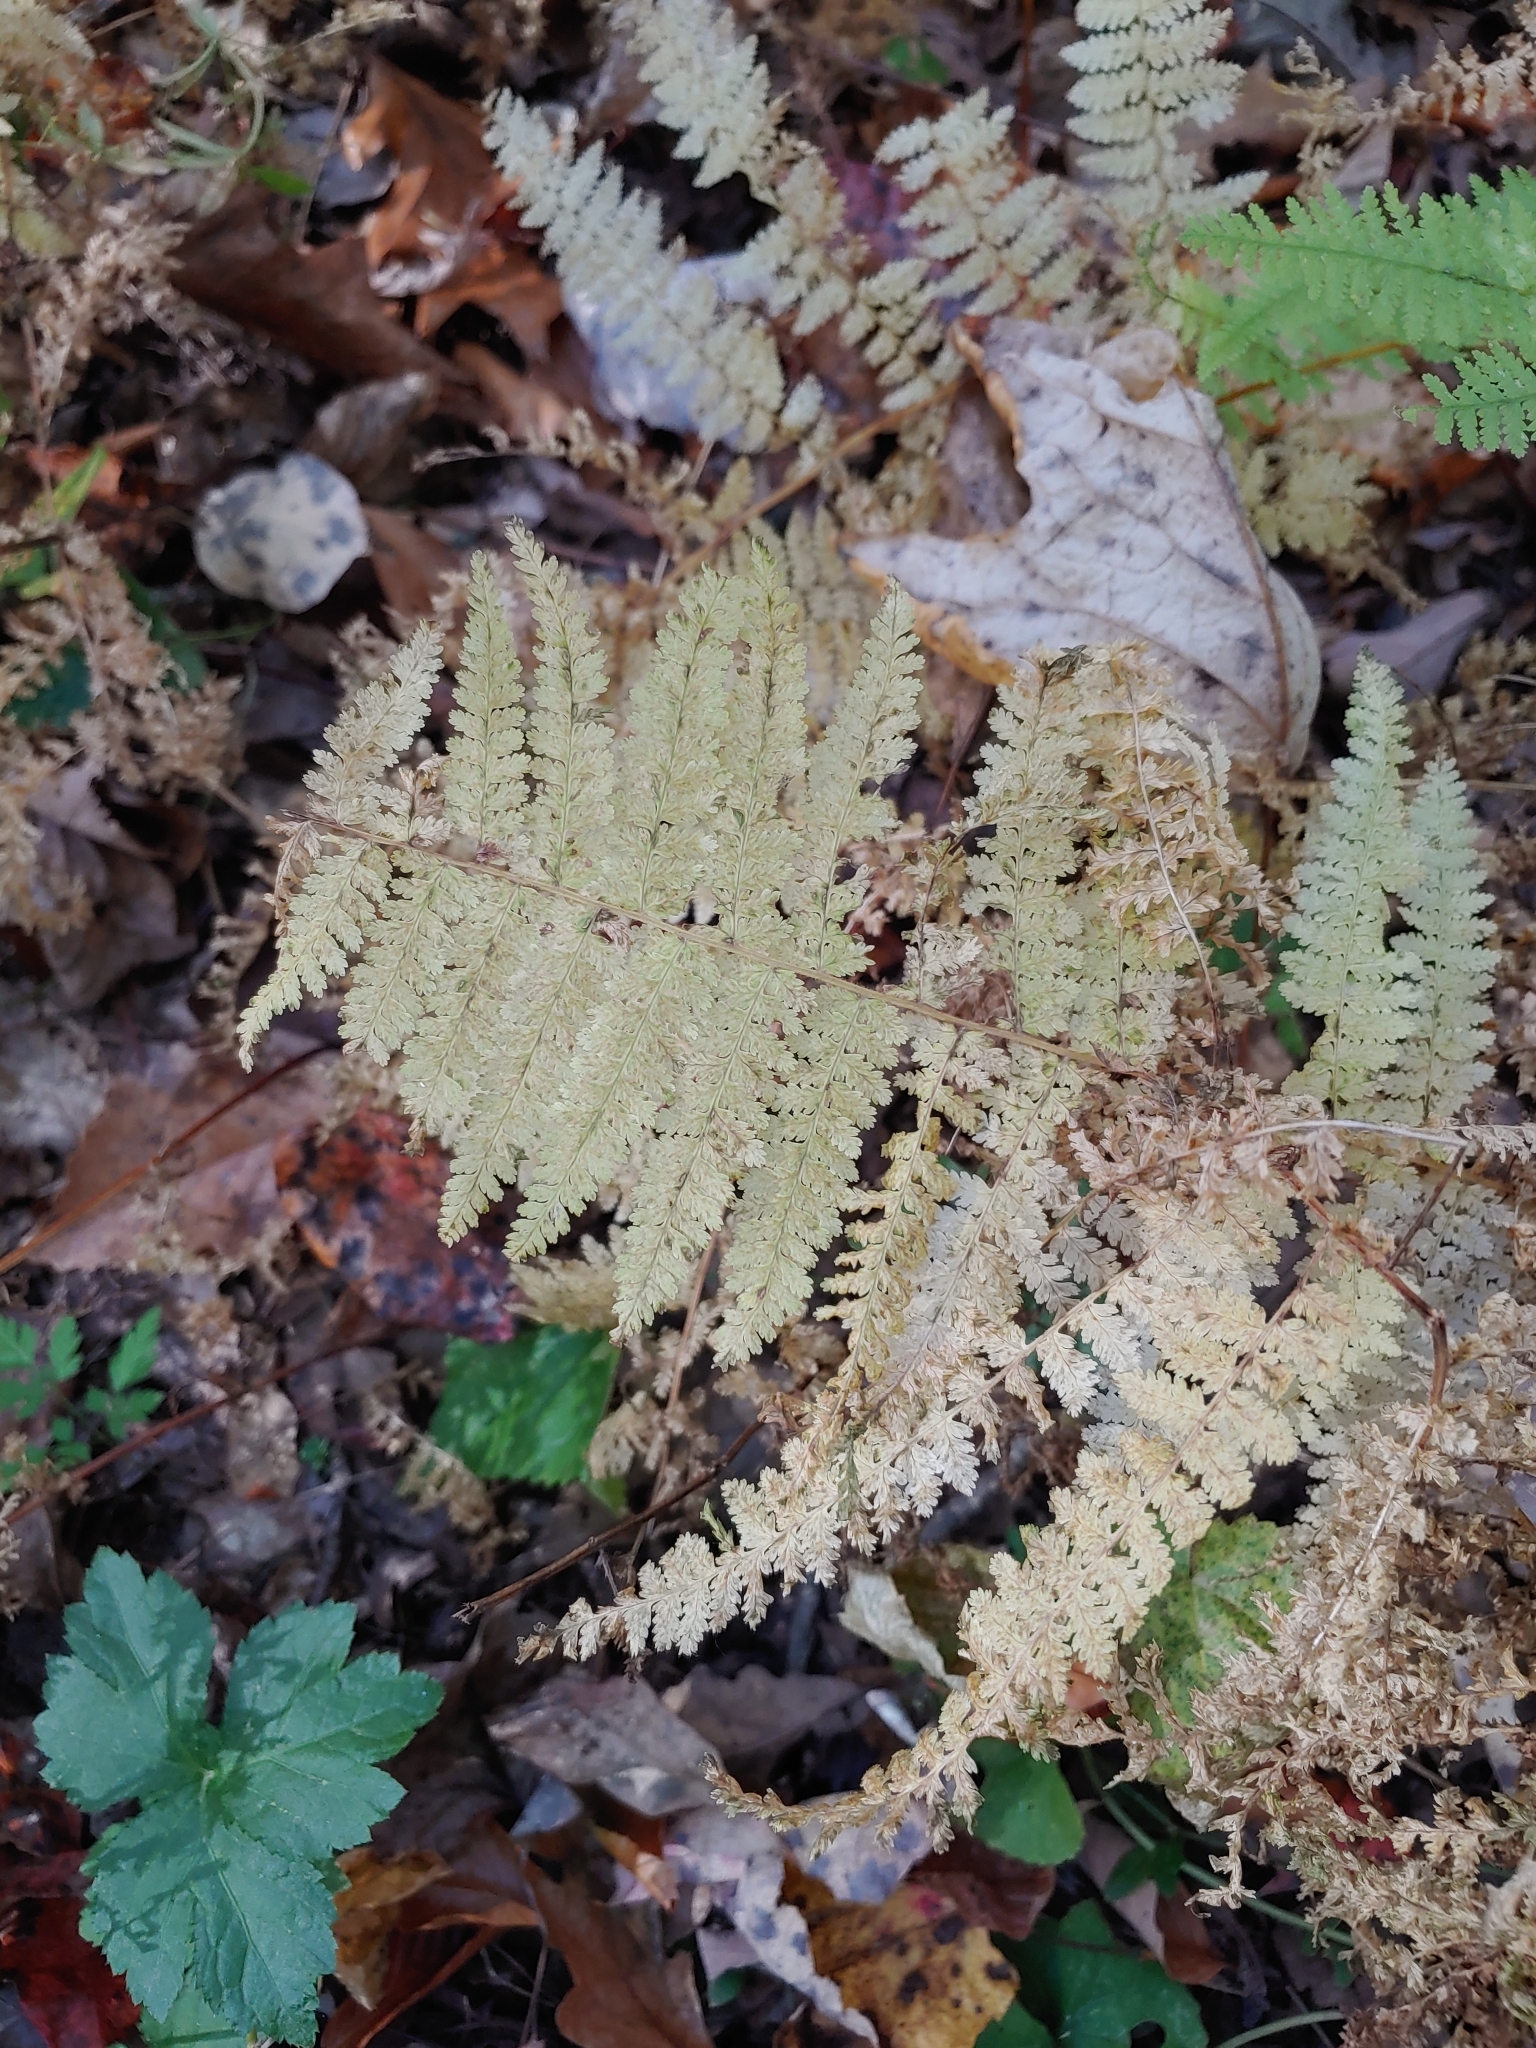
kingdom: Plantae
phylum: Tracheophyta
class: Polypodiopsida
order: Polypodiales
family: Dennstaedtiaceae
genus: Sitobolium
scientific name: Sitobolium punctilobum
